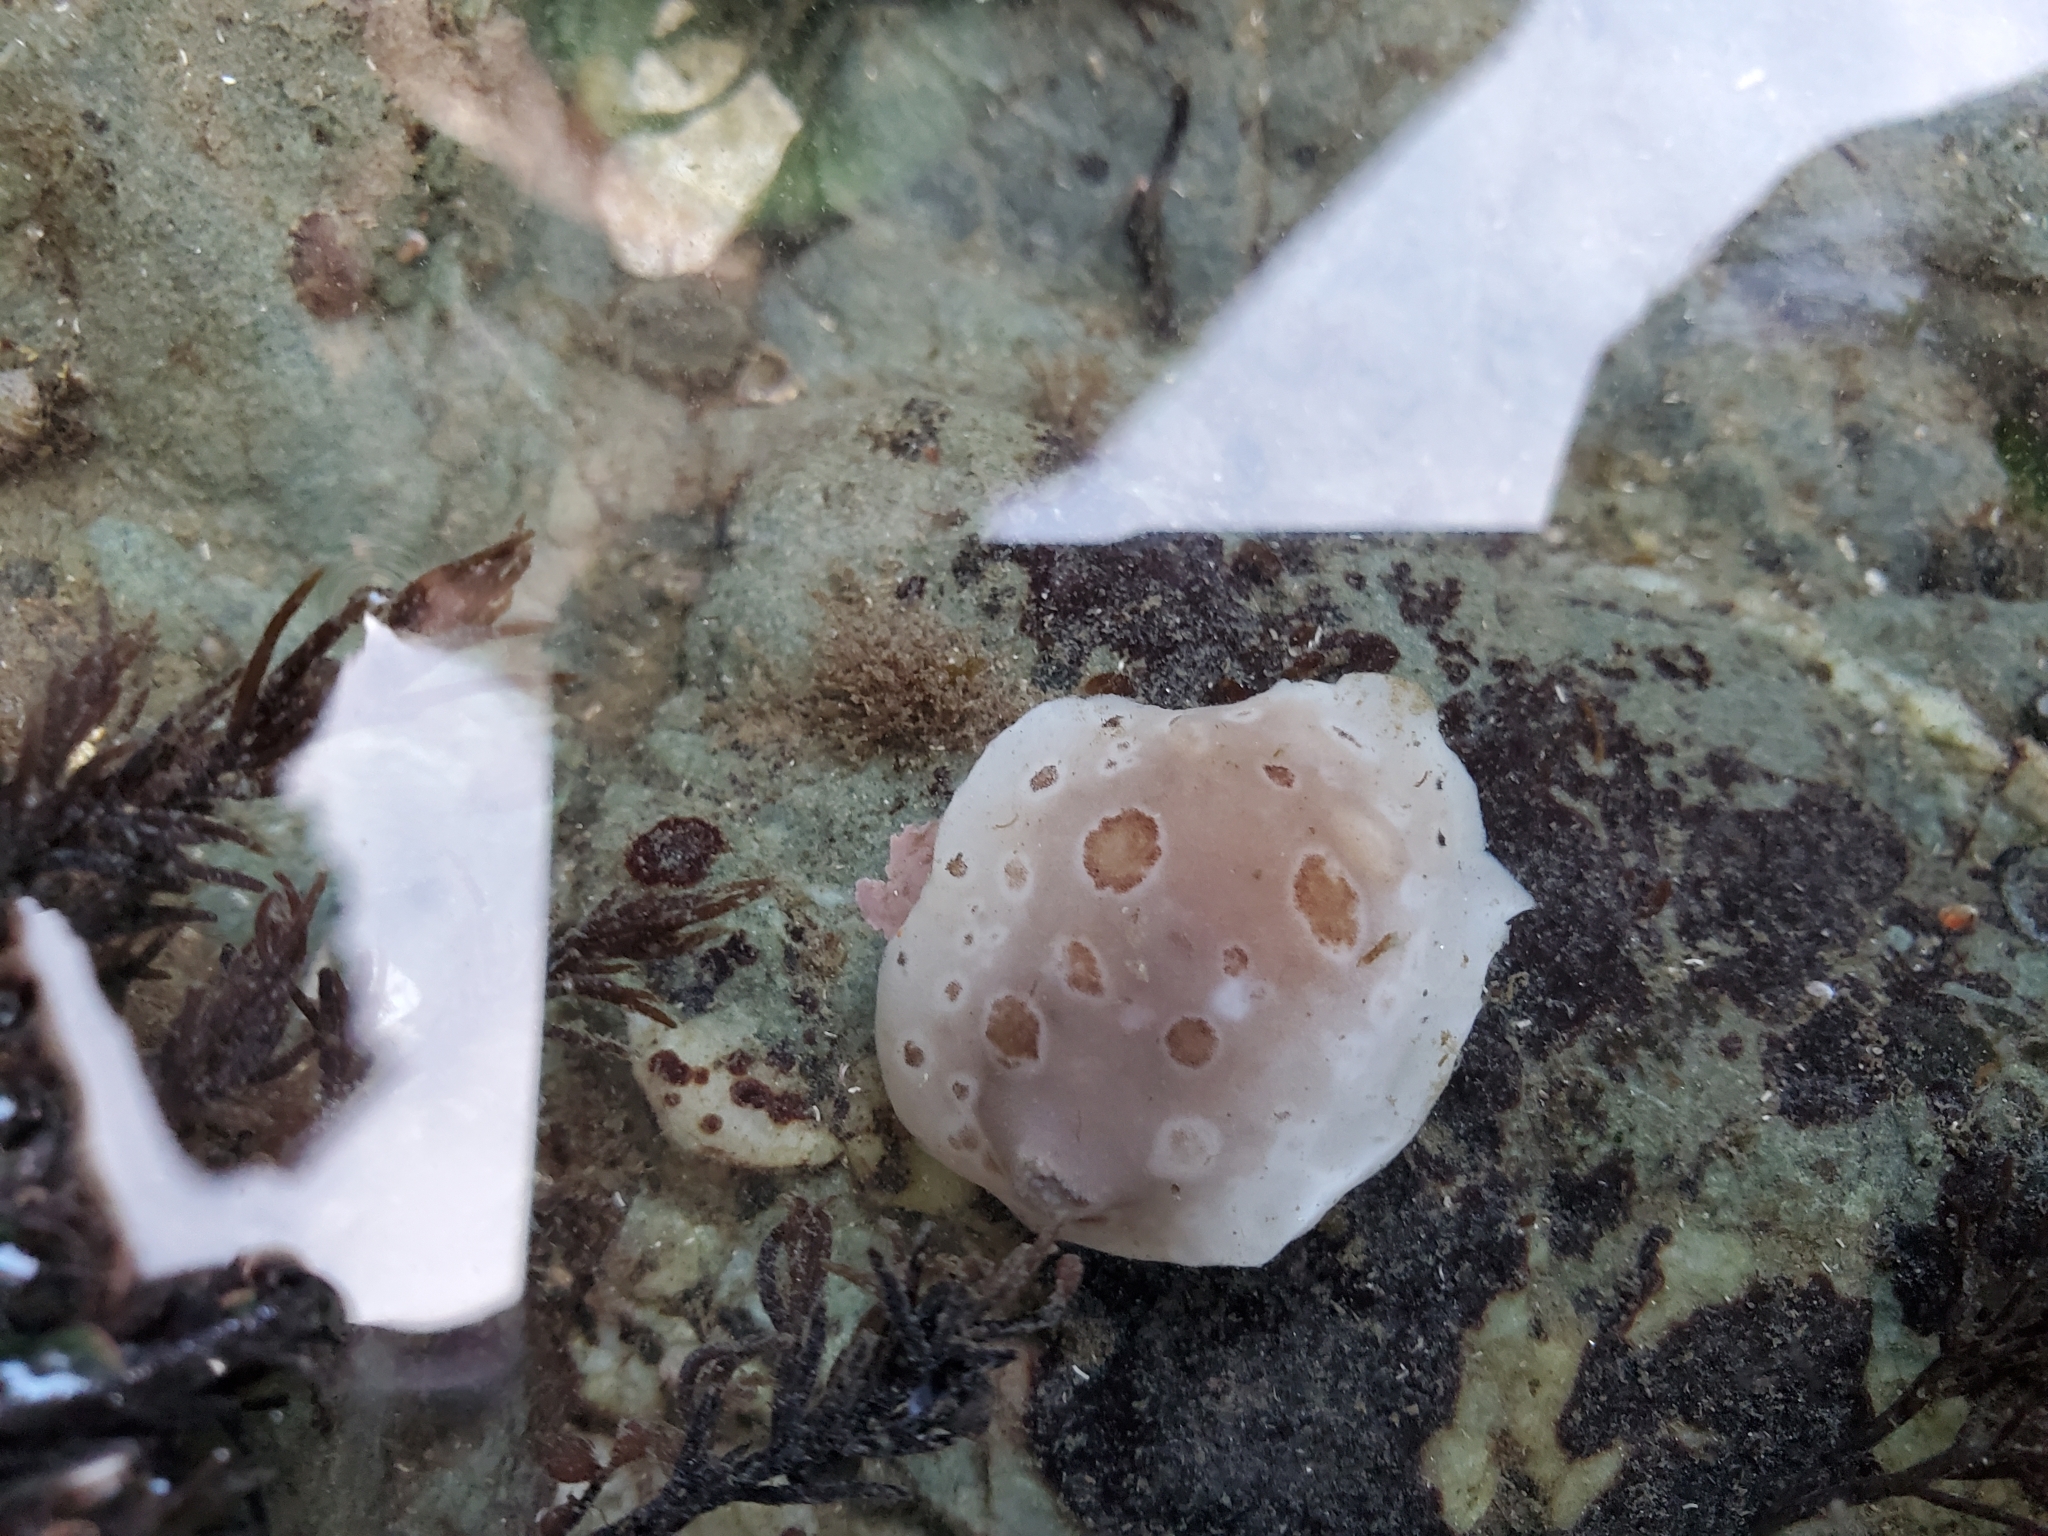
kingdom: Animalia
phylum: Mollusca
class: Gastropoda
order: Nudibranchia
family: Discodorididae
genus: Diaulula
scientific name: Diaulula odonoghuei
